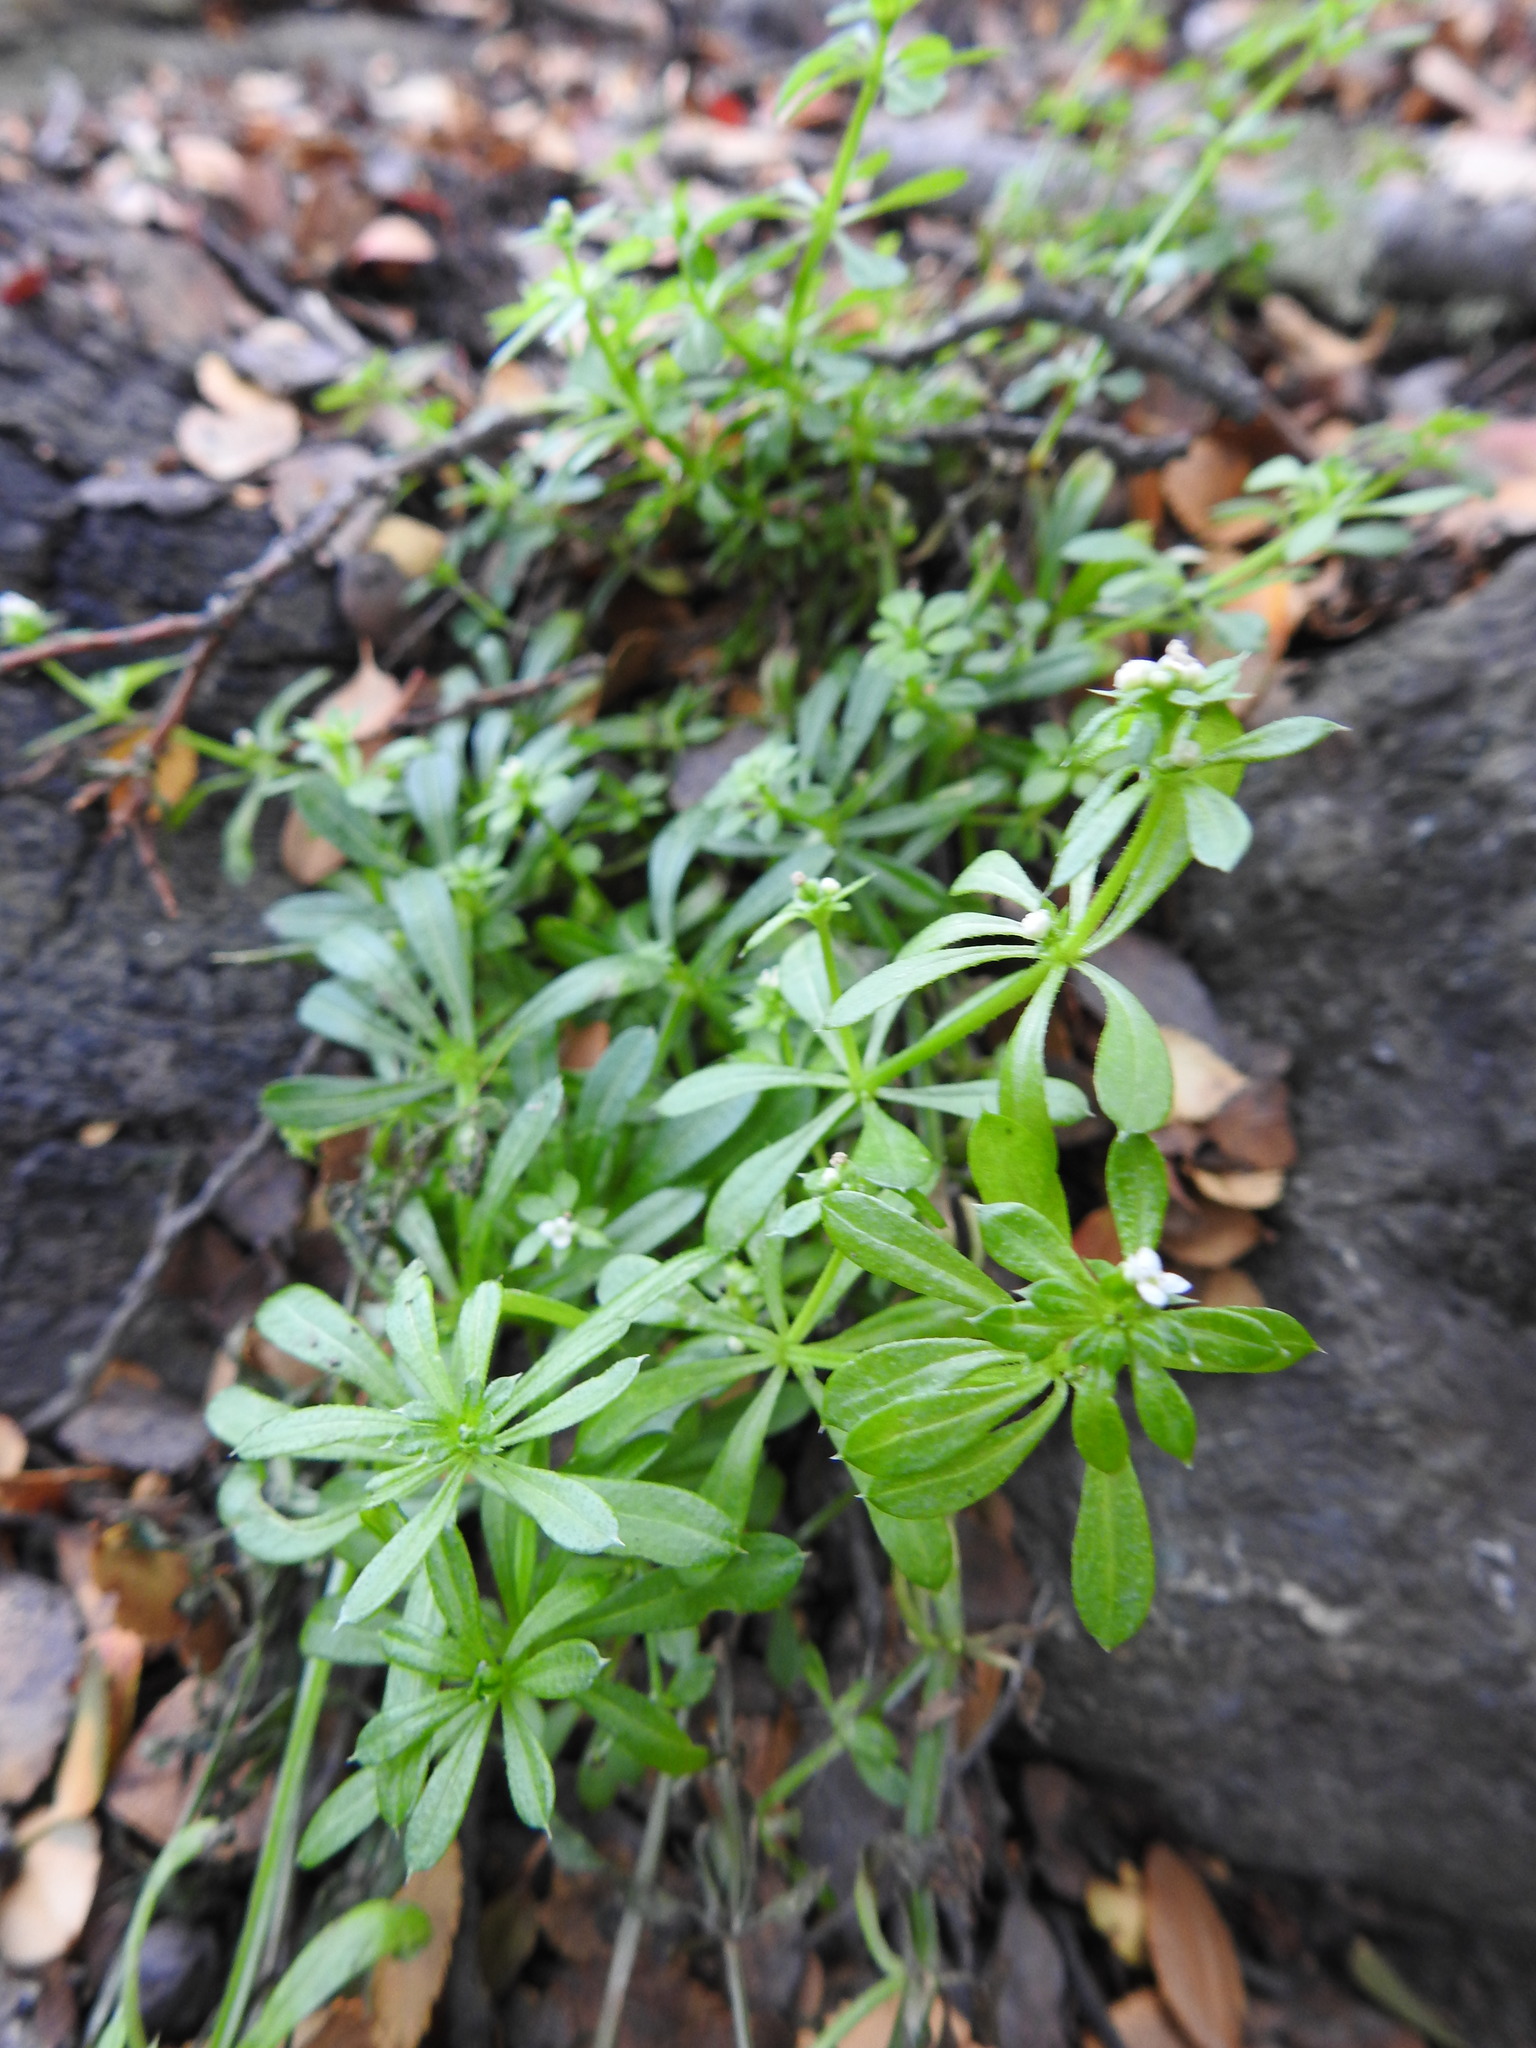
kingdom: Plantae
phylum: Tracheophyta
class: Magnoliopsida
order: Gentianales
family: Rubiaceae
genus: Galium
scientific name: Galium aparine
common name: Cleavers
